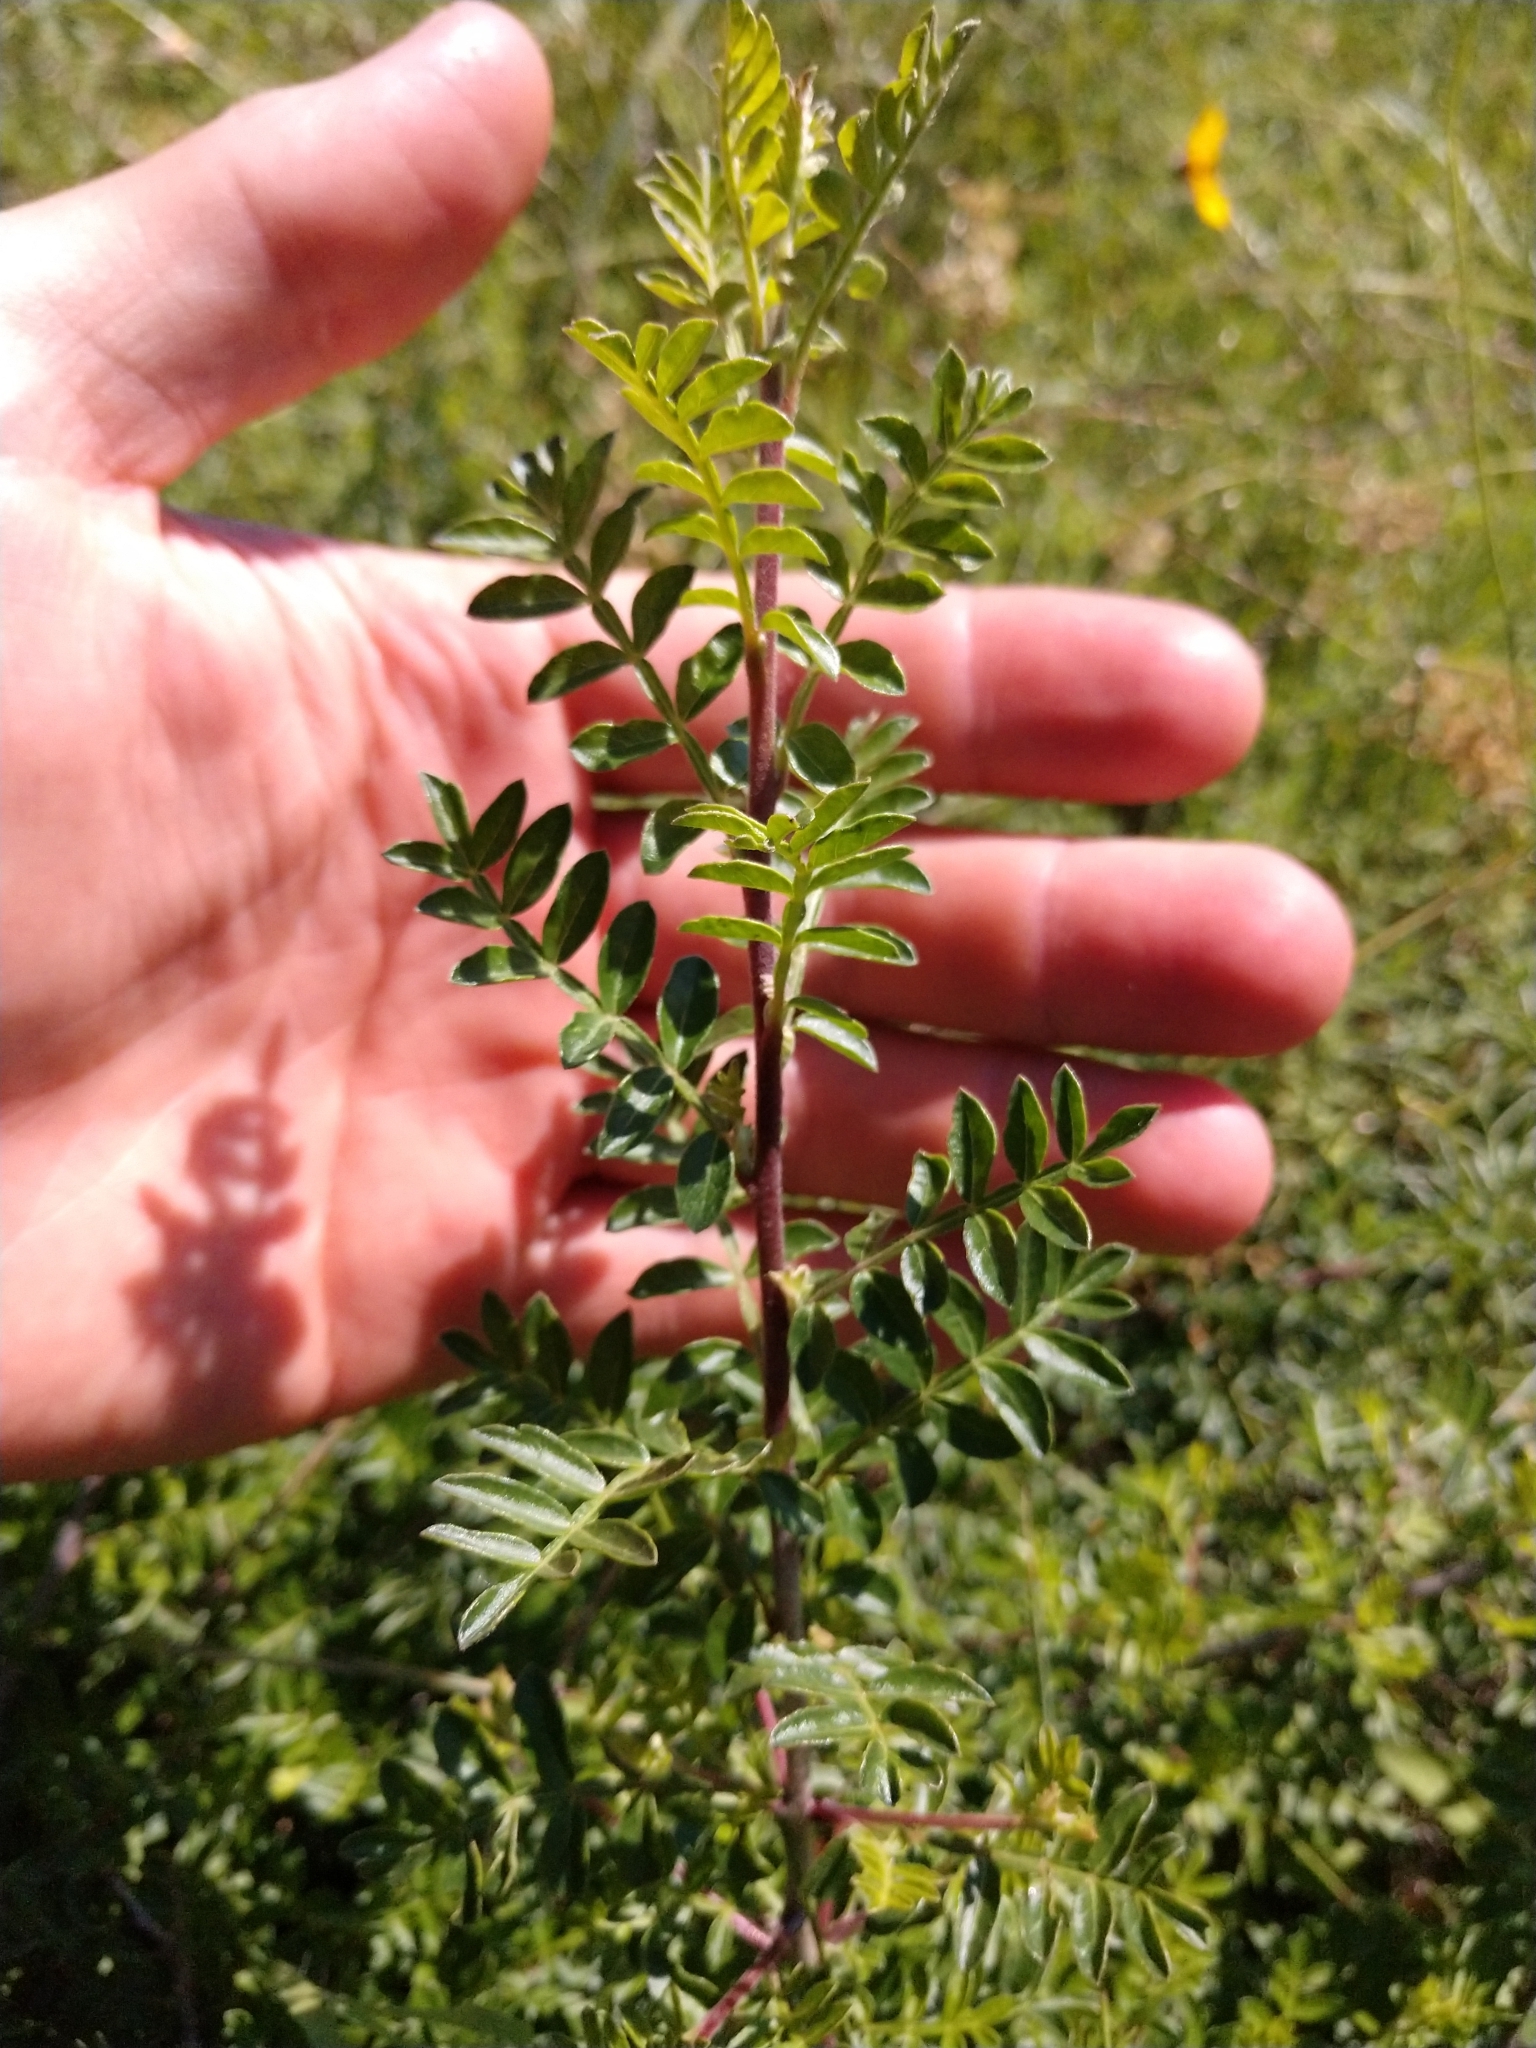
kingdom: Plantae
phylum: Tracheophyta
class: Magnoliopsida
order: Sapindales
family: Anacardiaceae
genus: Rhus
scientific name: Rhus microphylla
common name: Desert sumac
